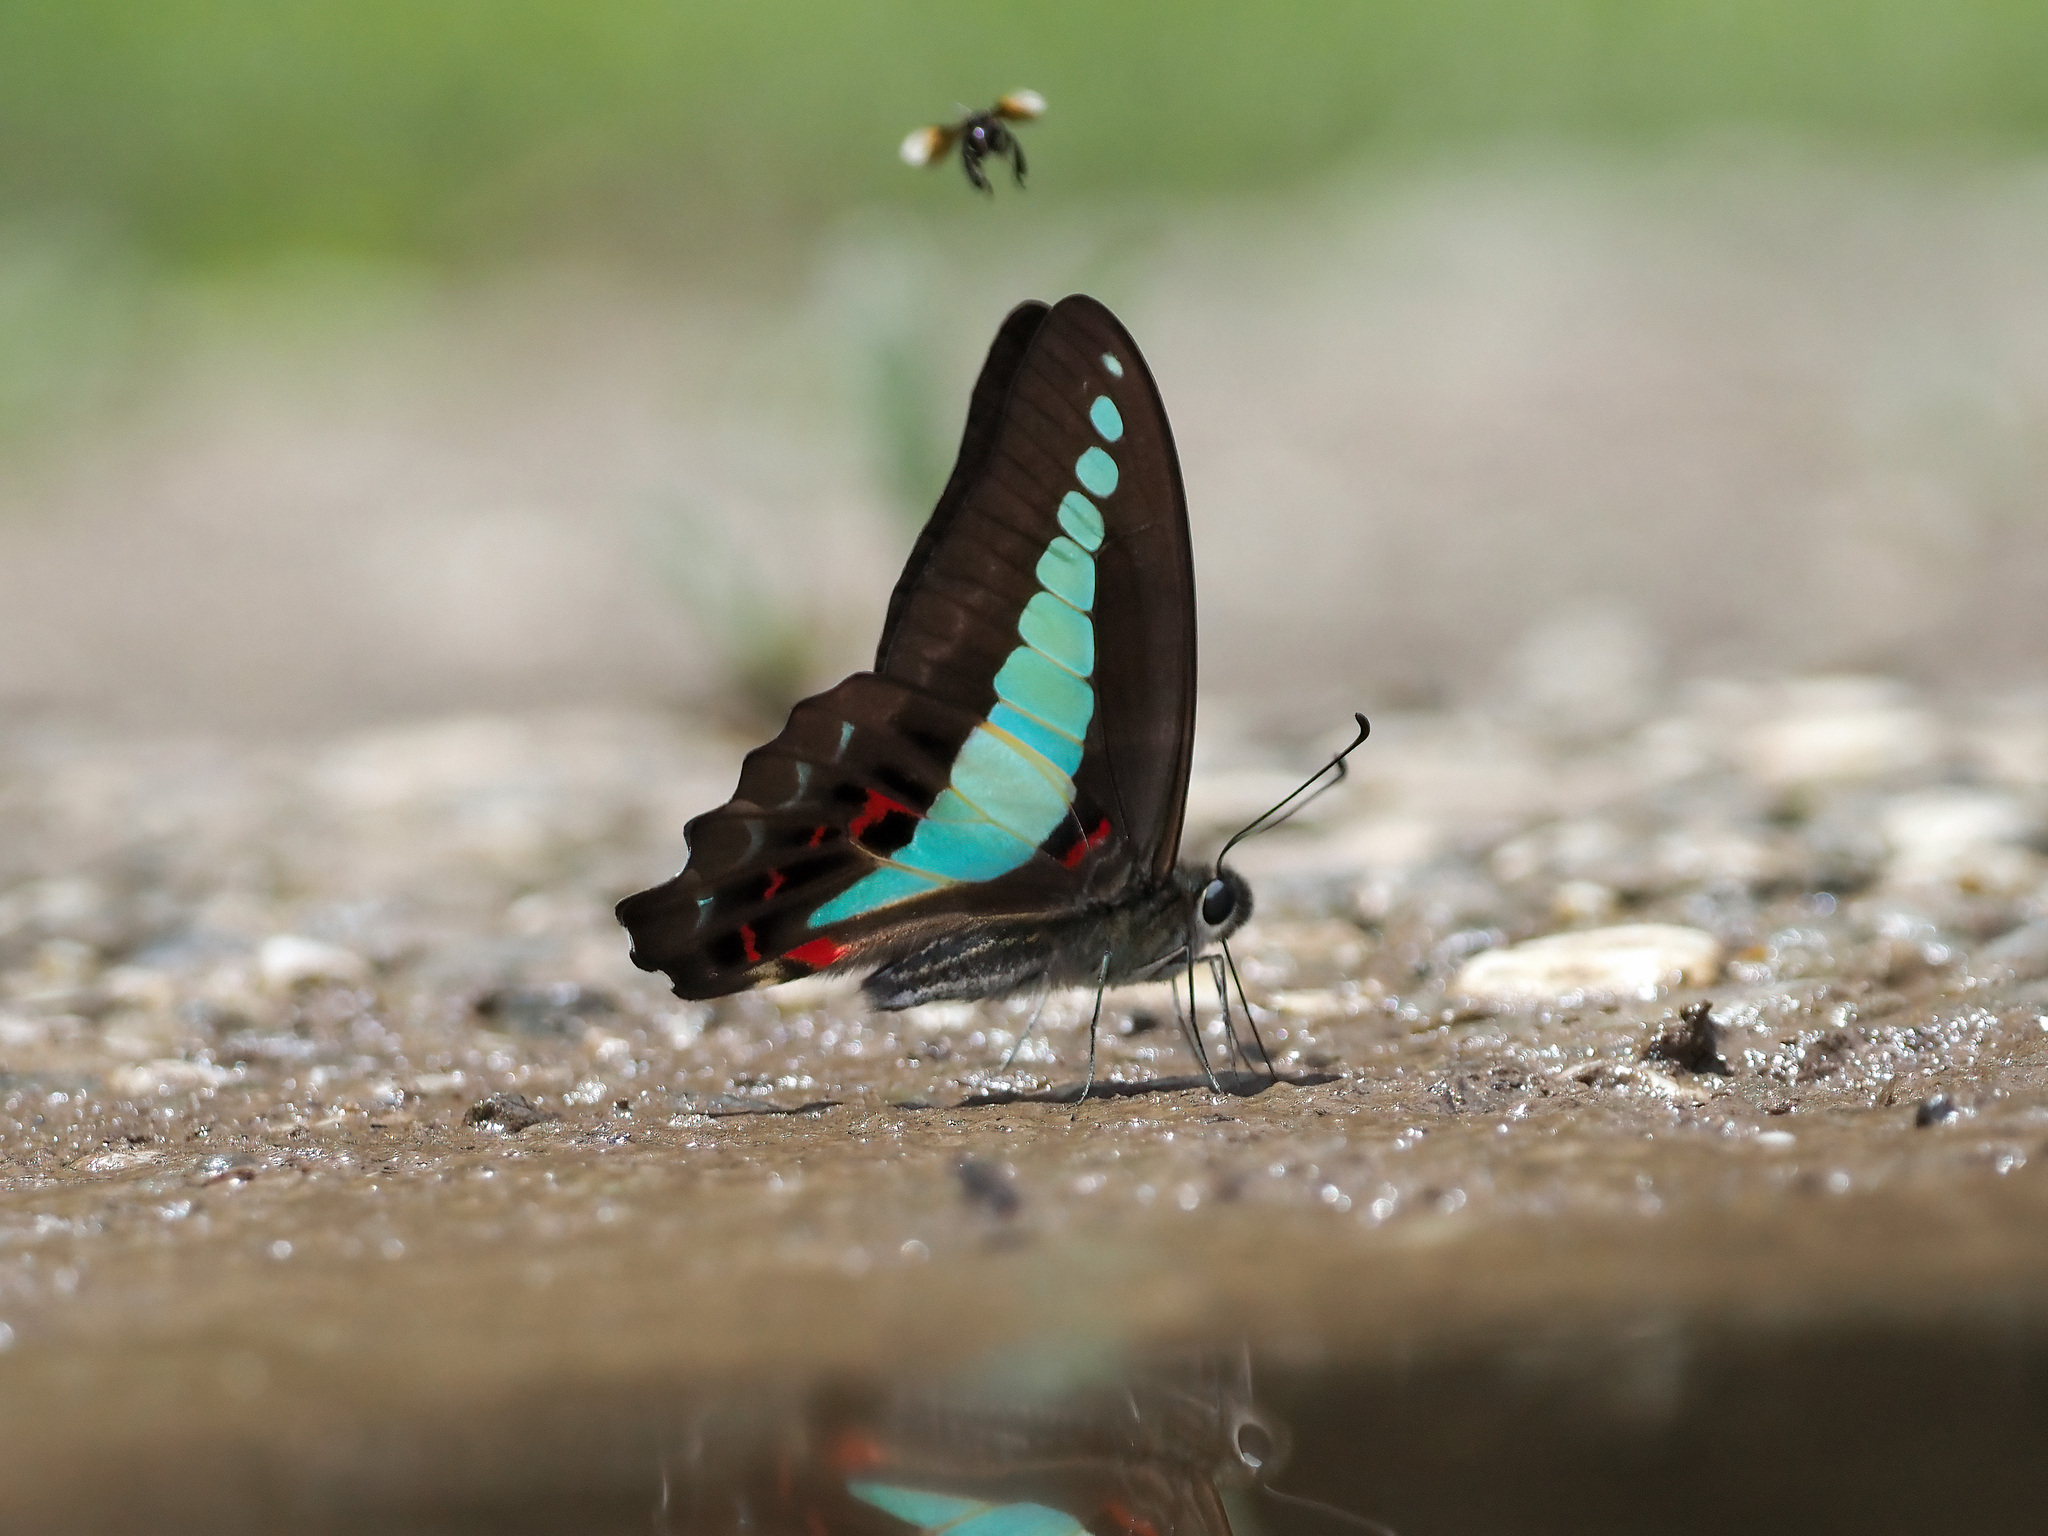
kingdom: Fungi
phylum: Ascomycota
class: Sordariomycetes
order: Microascales
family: Microascaceae
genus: Graphium
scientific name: Graphium sarpedon
